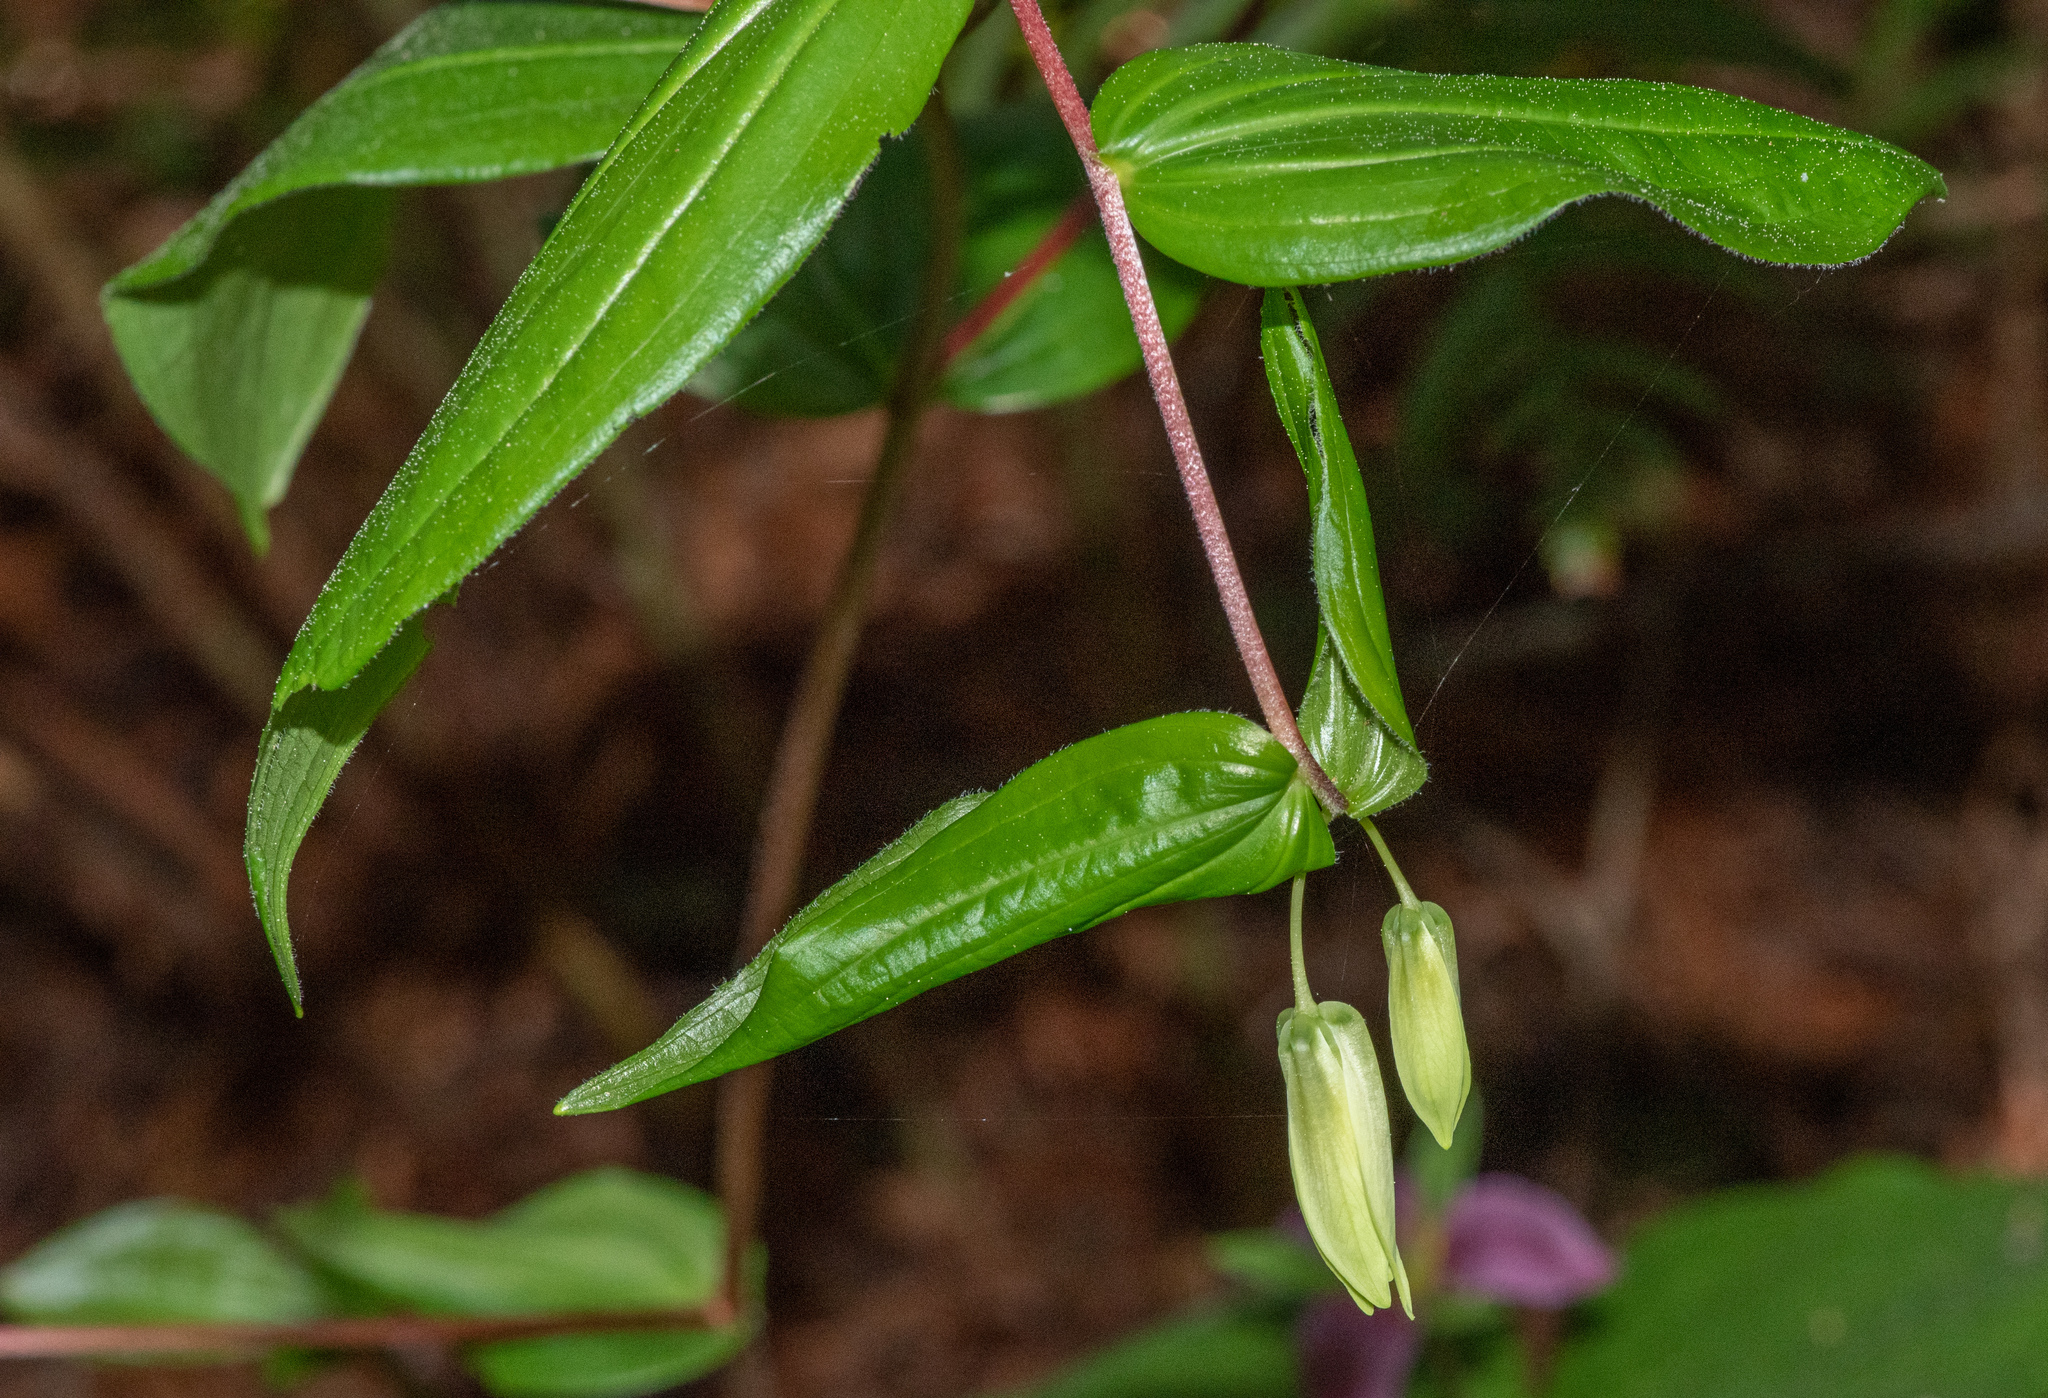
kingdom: Plantae
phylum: Tracheophyta
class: Liliopsida
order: Liliales
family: Liliaceae
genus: Prosartes
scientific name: Prosartes smithii
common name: Fairy-lantern
